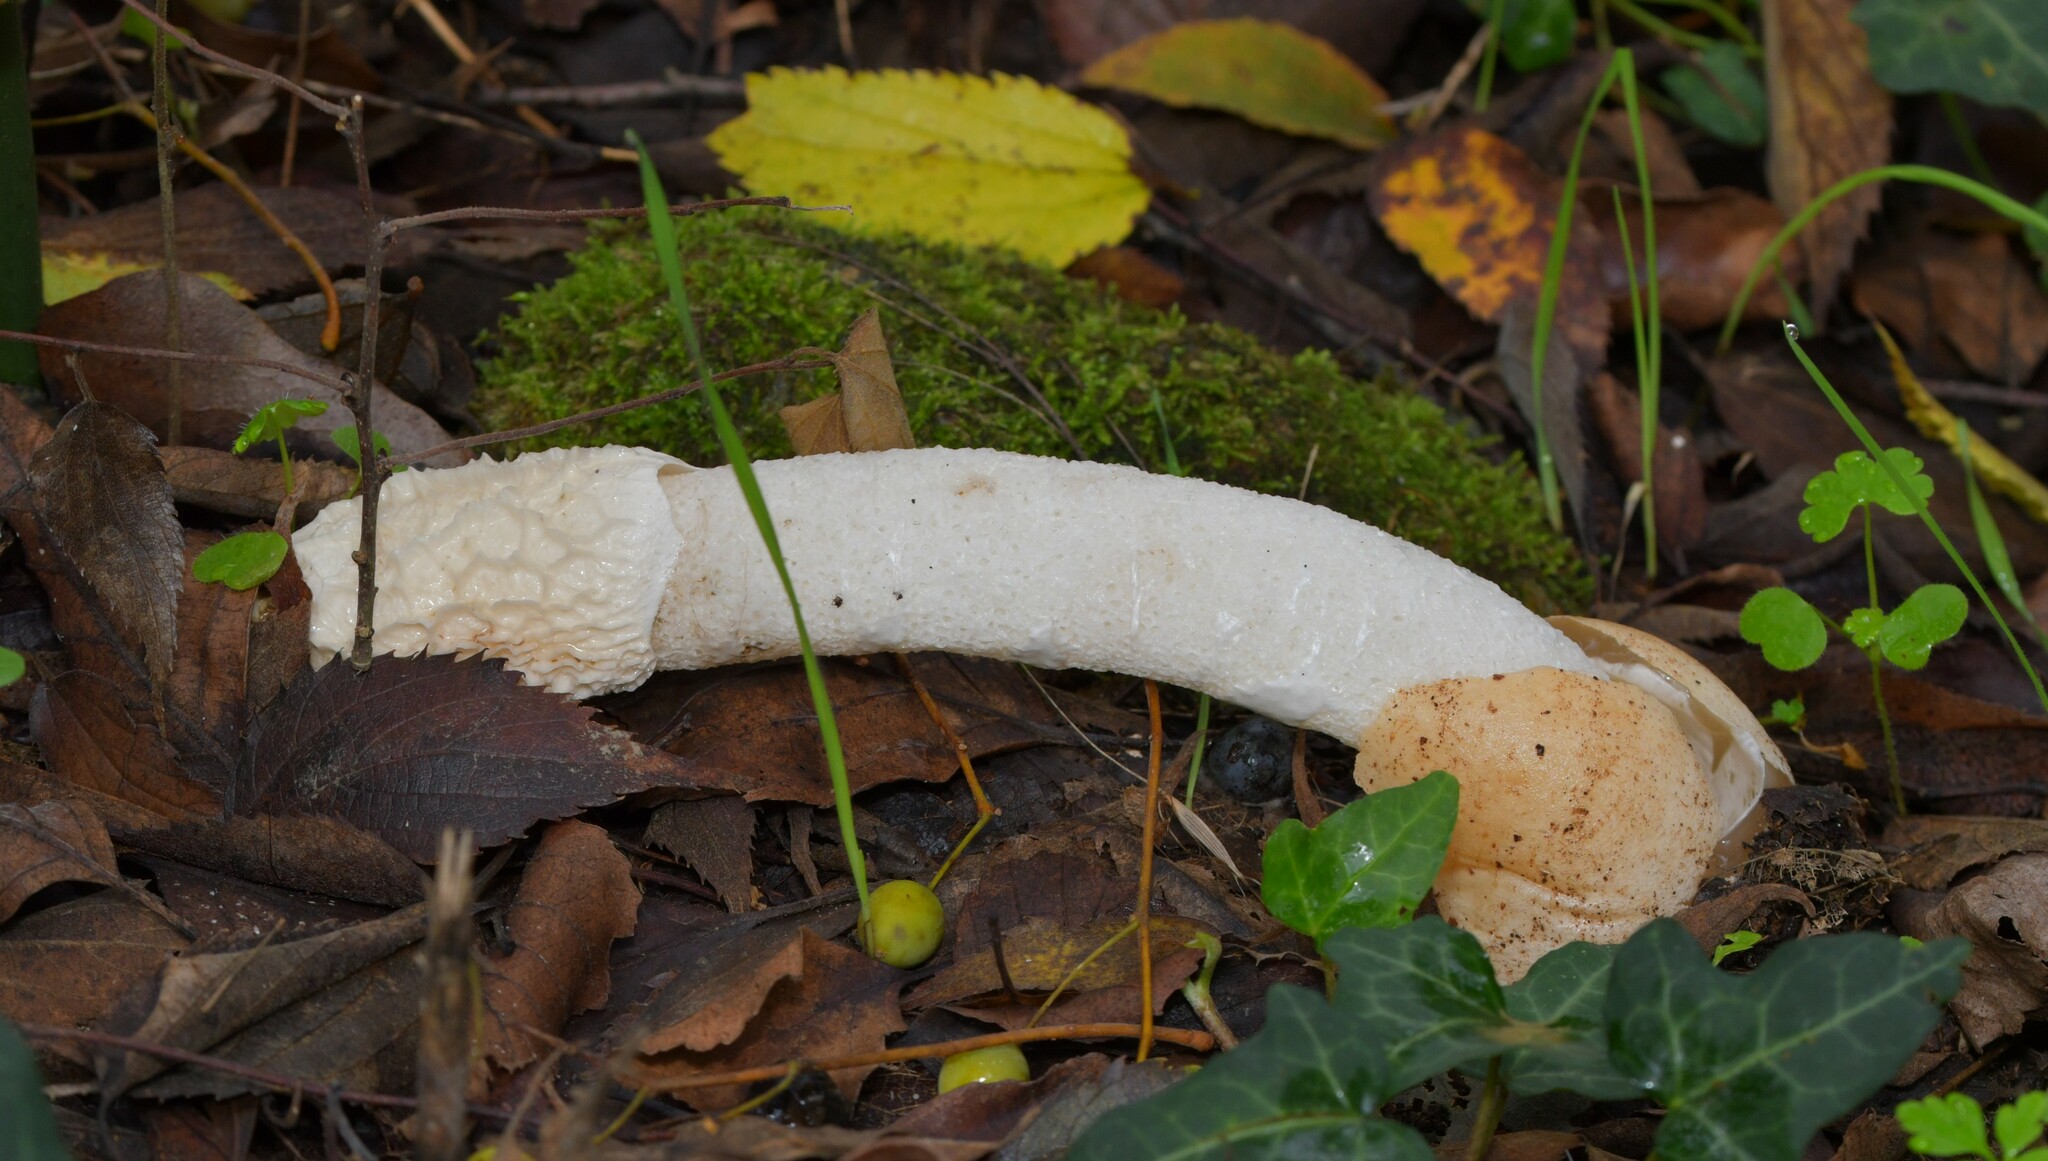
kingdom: Fungi
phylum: Basidiomycota
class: Agaricomycetes
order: Phallales
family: Phallaceae
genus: Phallus
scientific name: Phallus impudicus
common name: Common stinkhorn
